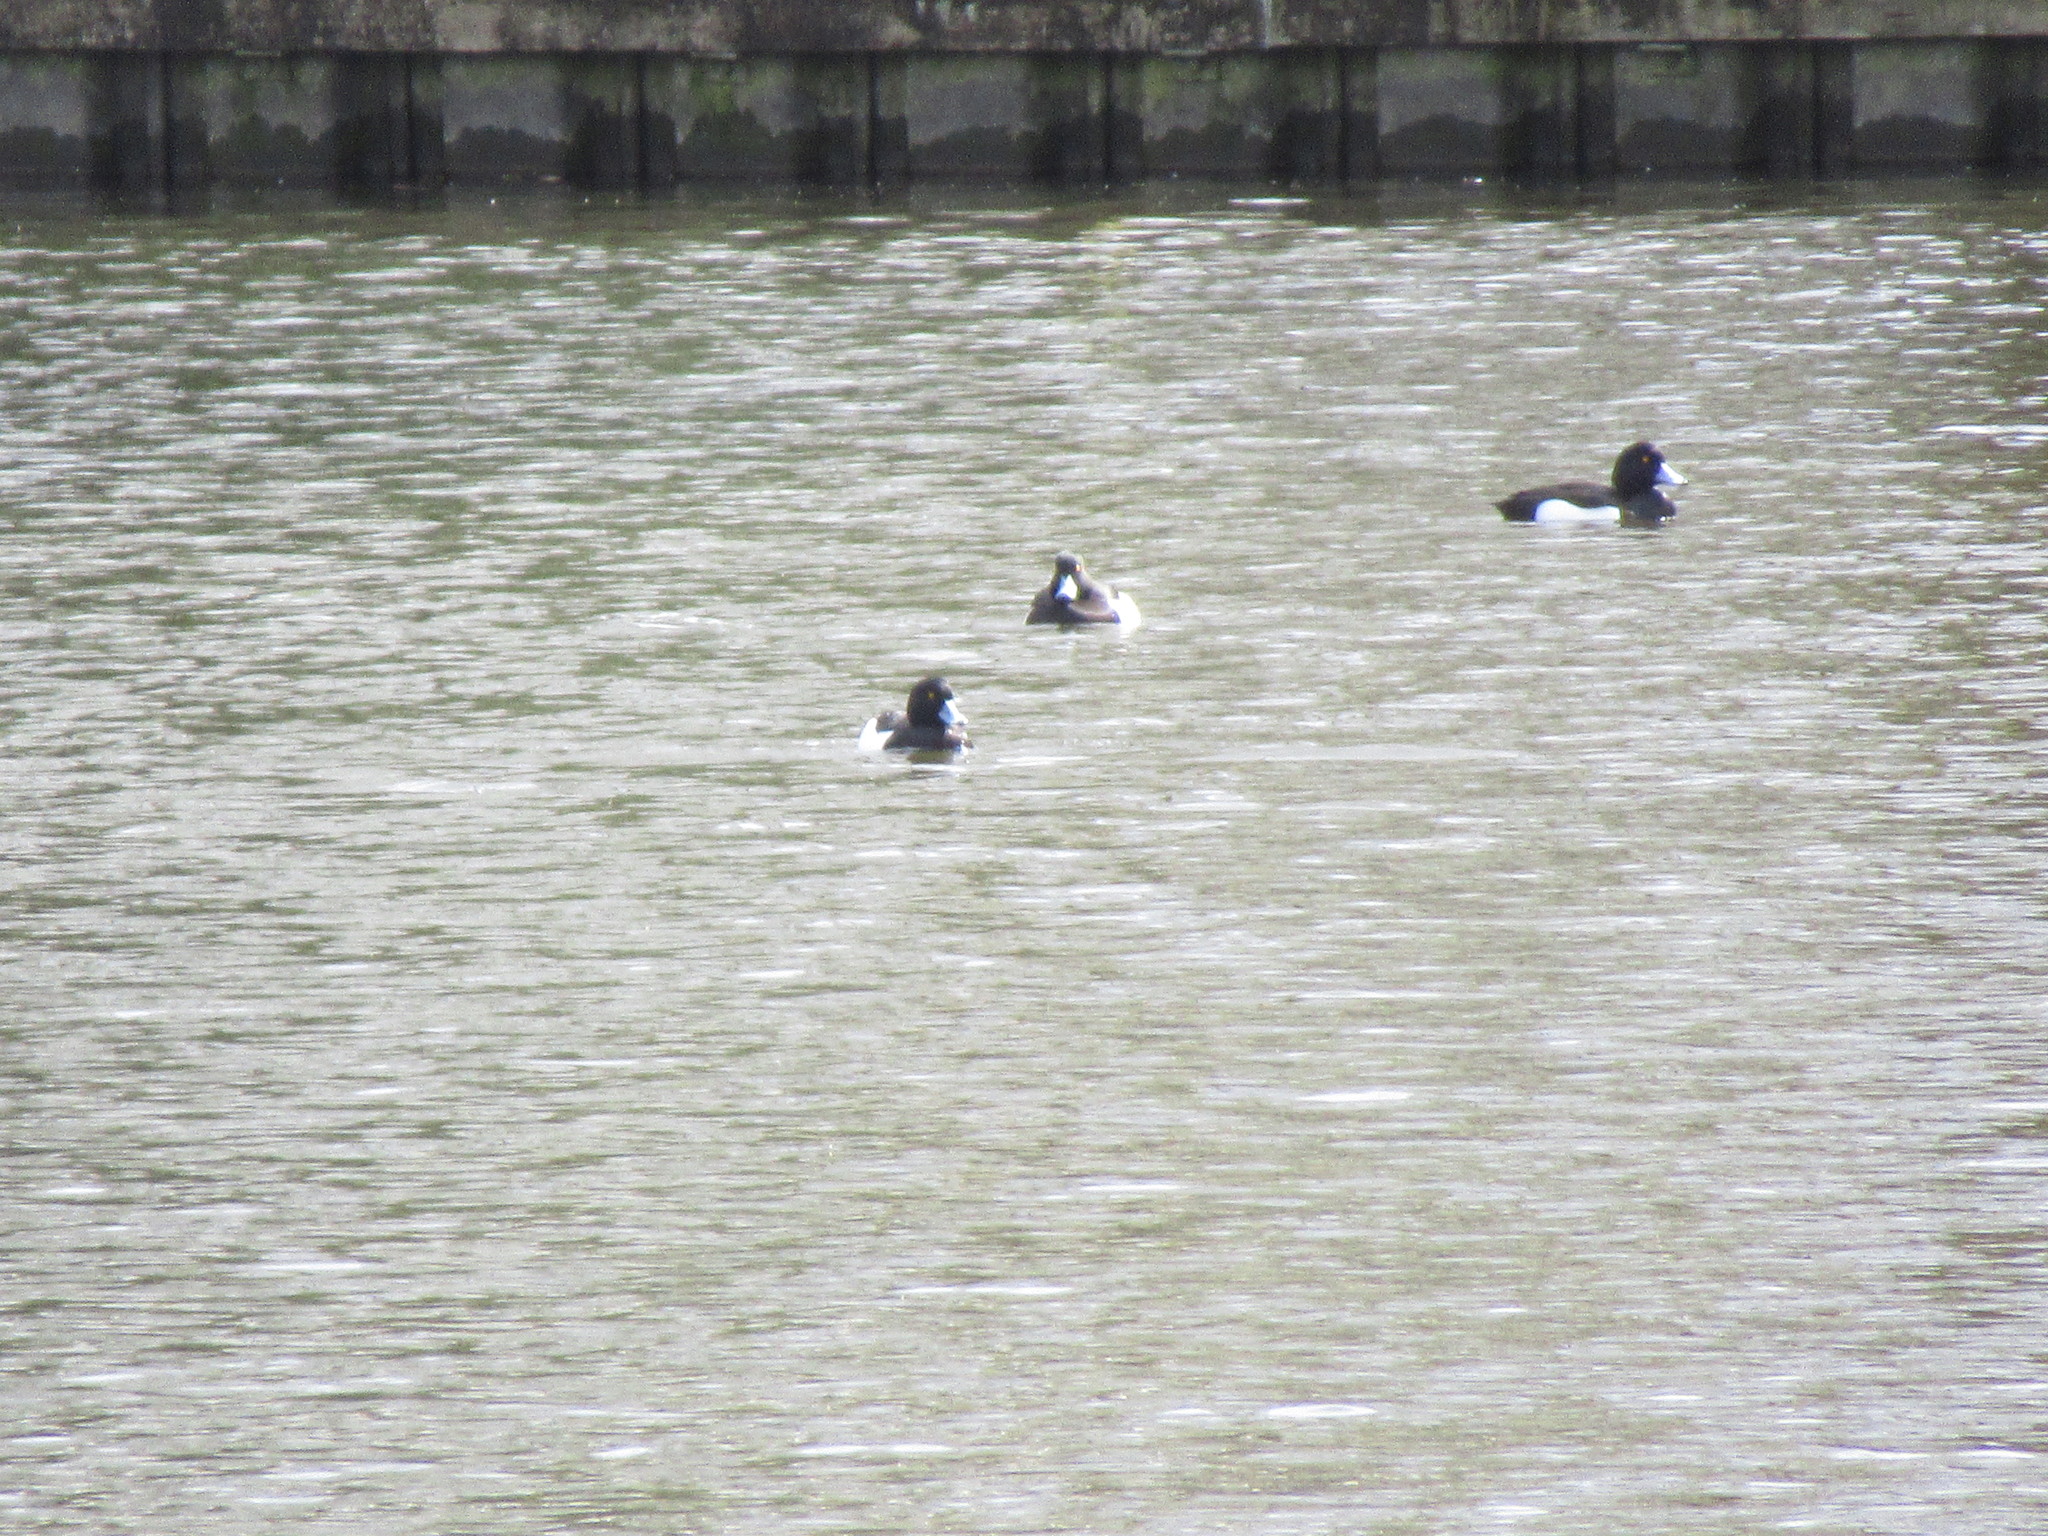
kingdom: Animalia
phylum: Chordata
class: Aves
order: Anseriformes
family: Anatidae
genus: Aythya
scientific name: Aythya fuligula
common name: Tufted duck
